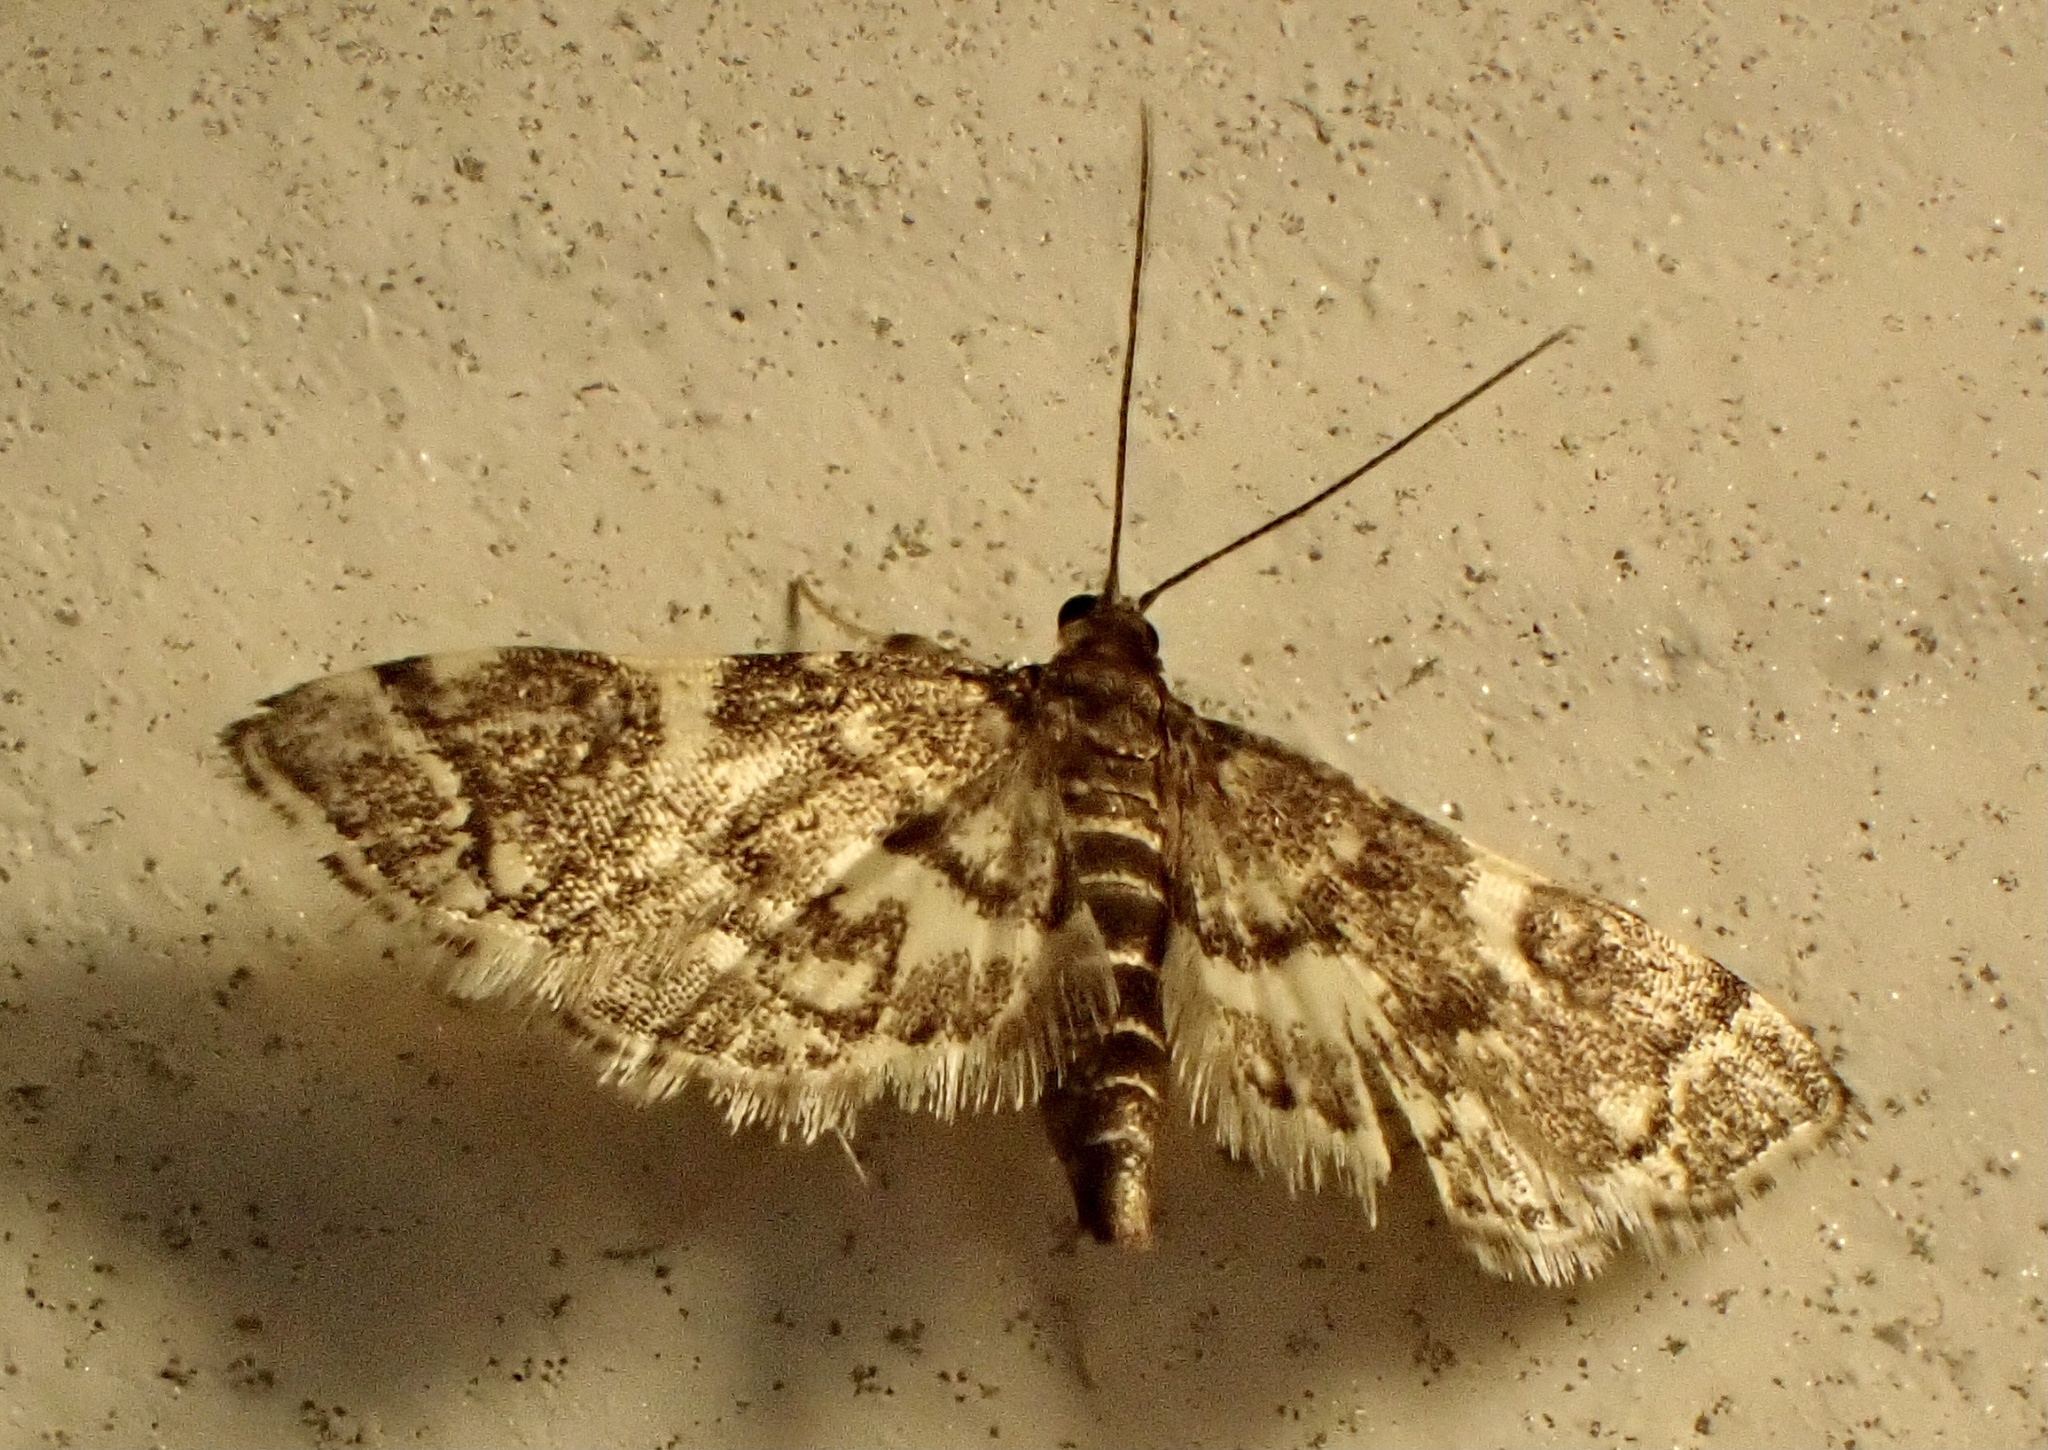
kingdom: Animalia
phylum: Arthropoda
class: Insecta
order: Lepidoptera
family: Crambidae
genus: Anageshna
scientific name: Anageshna primordialis
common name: Yellow-spotted webworm moth
